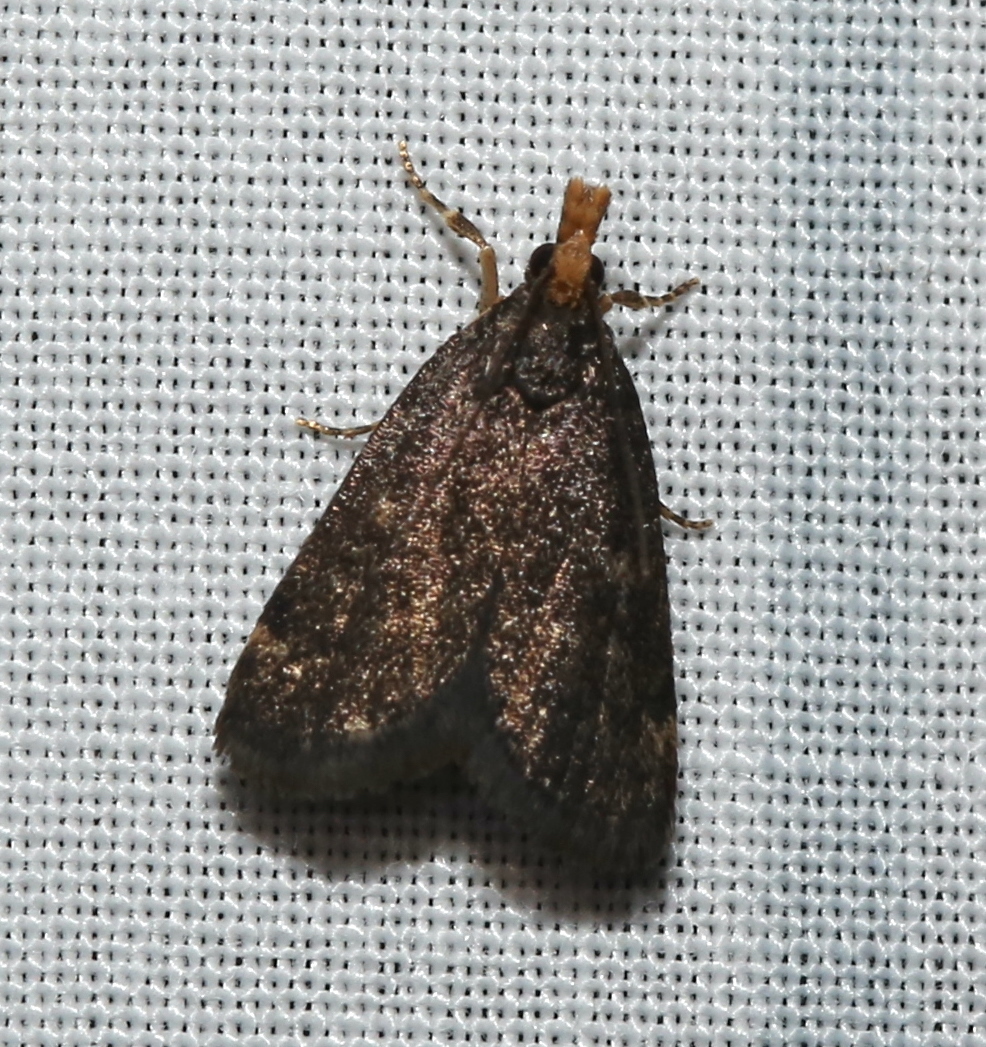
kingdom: Animalia
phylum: Arthropoda
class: Insecta
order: Lepidoptera
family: Crambidae
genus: Pyrausta
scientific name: Pyrausta merrickalis
